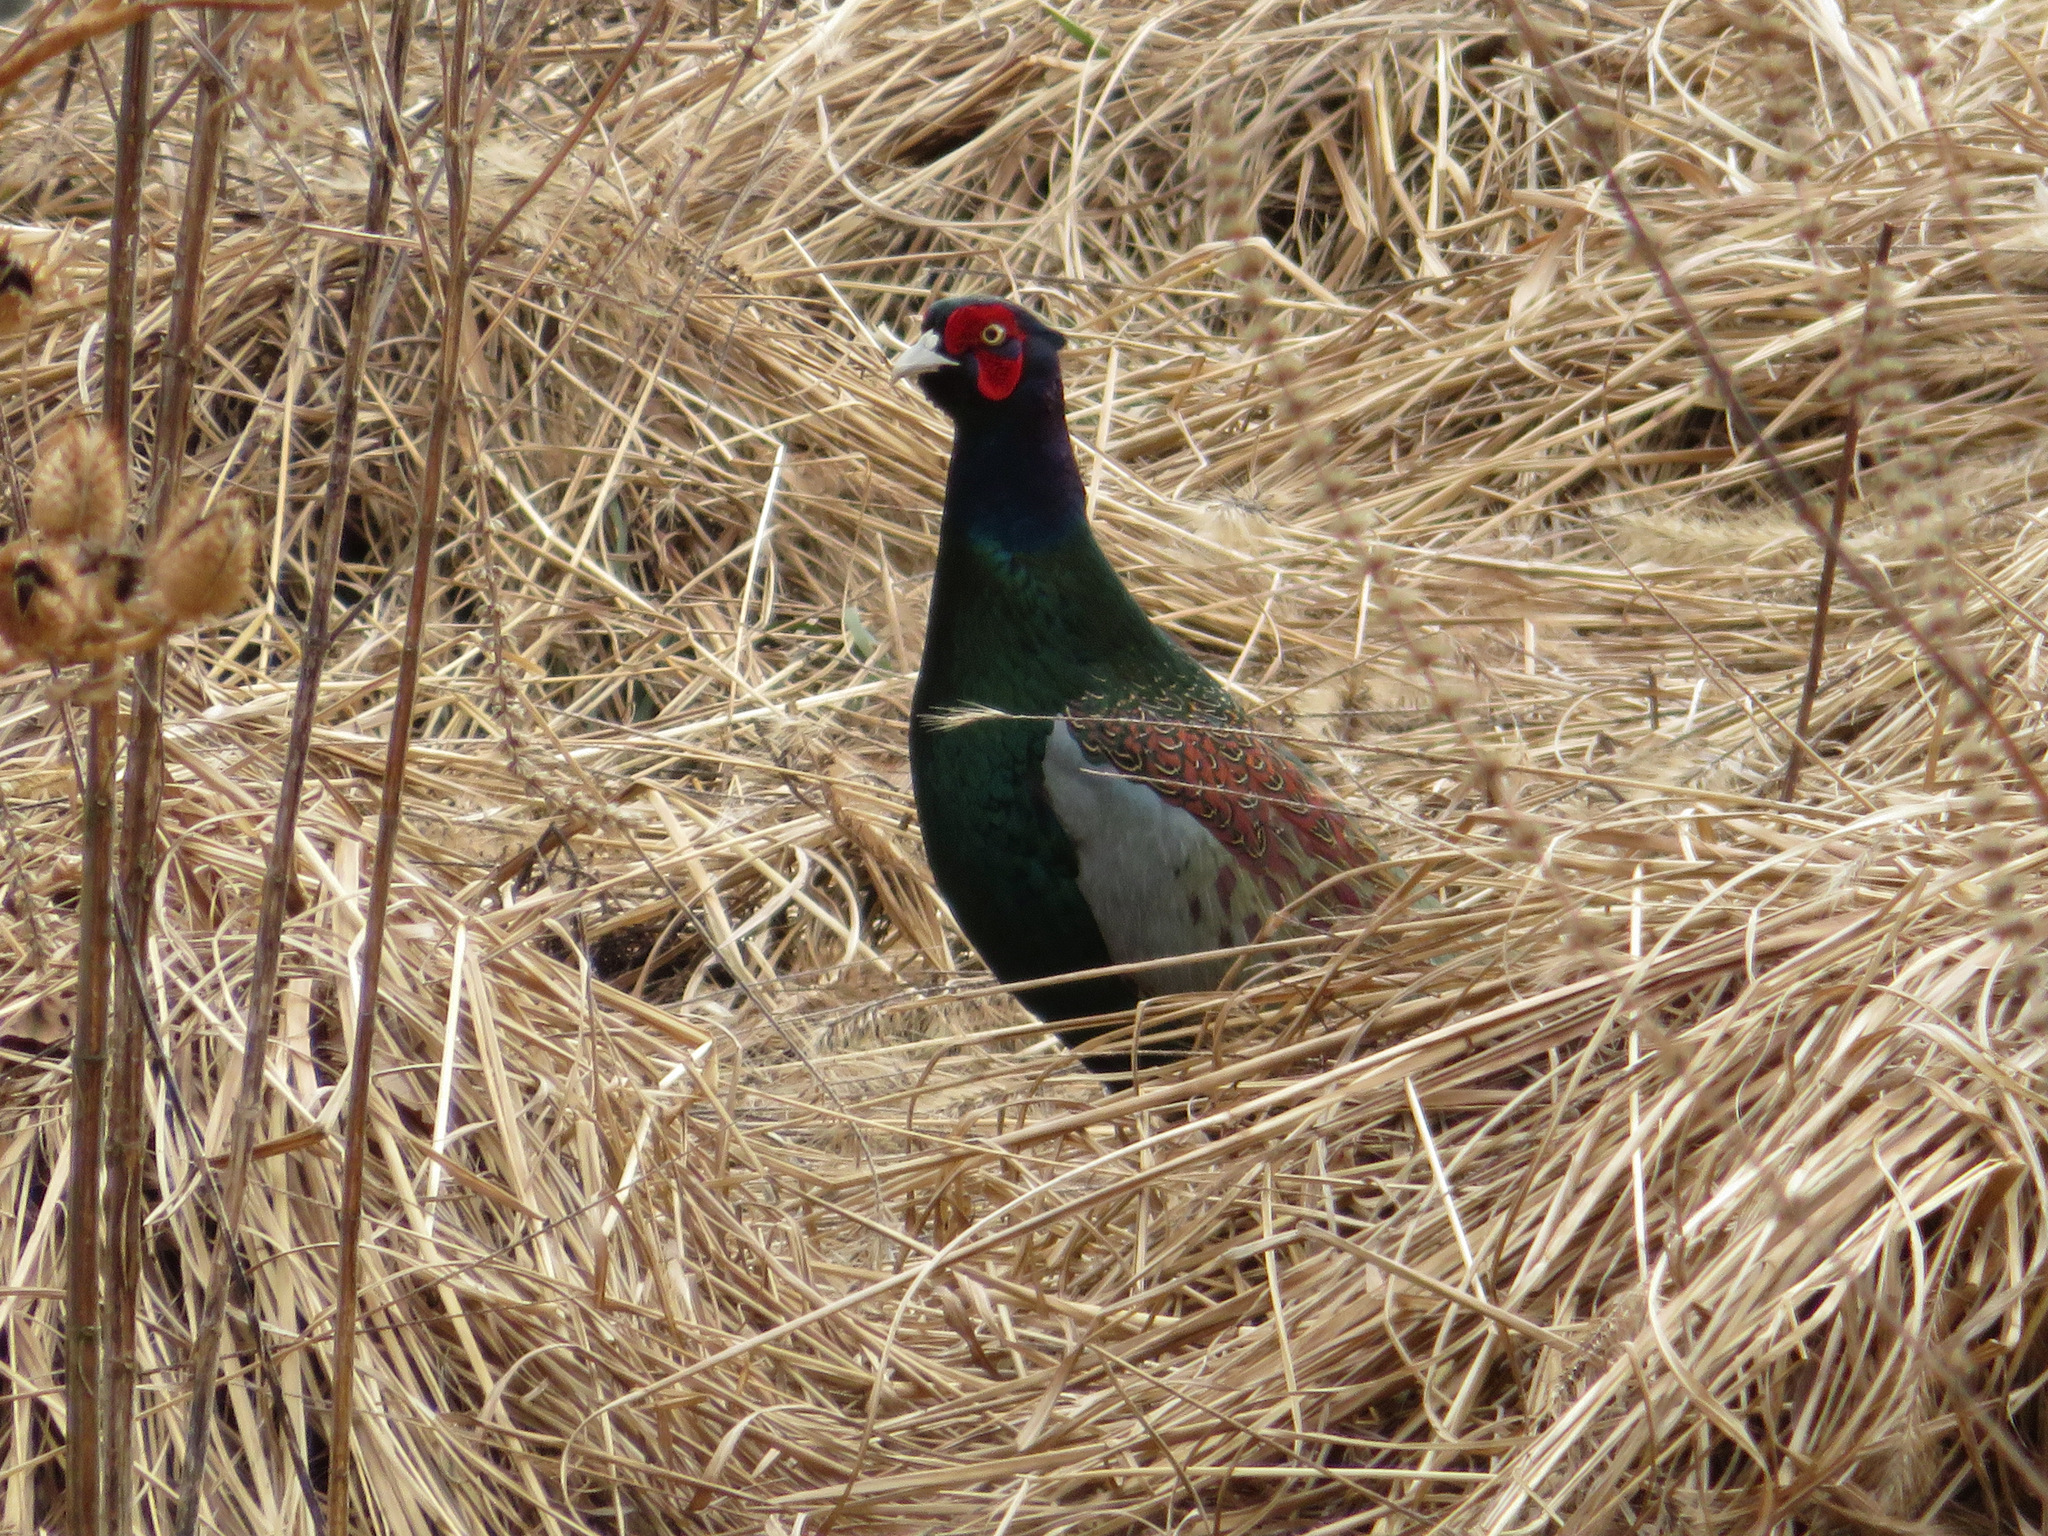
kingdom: Animalia
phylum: Chordata
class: Aves
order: Galliformes
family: Phasianidae
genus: Phasianus
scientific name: Phasianus versicolor
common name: Green pheasant
